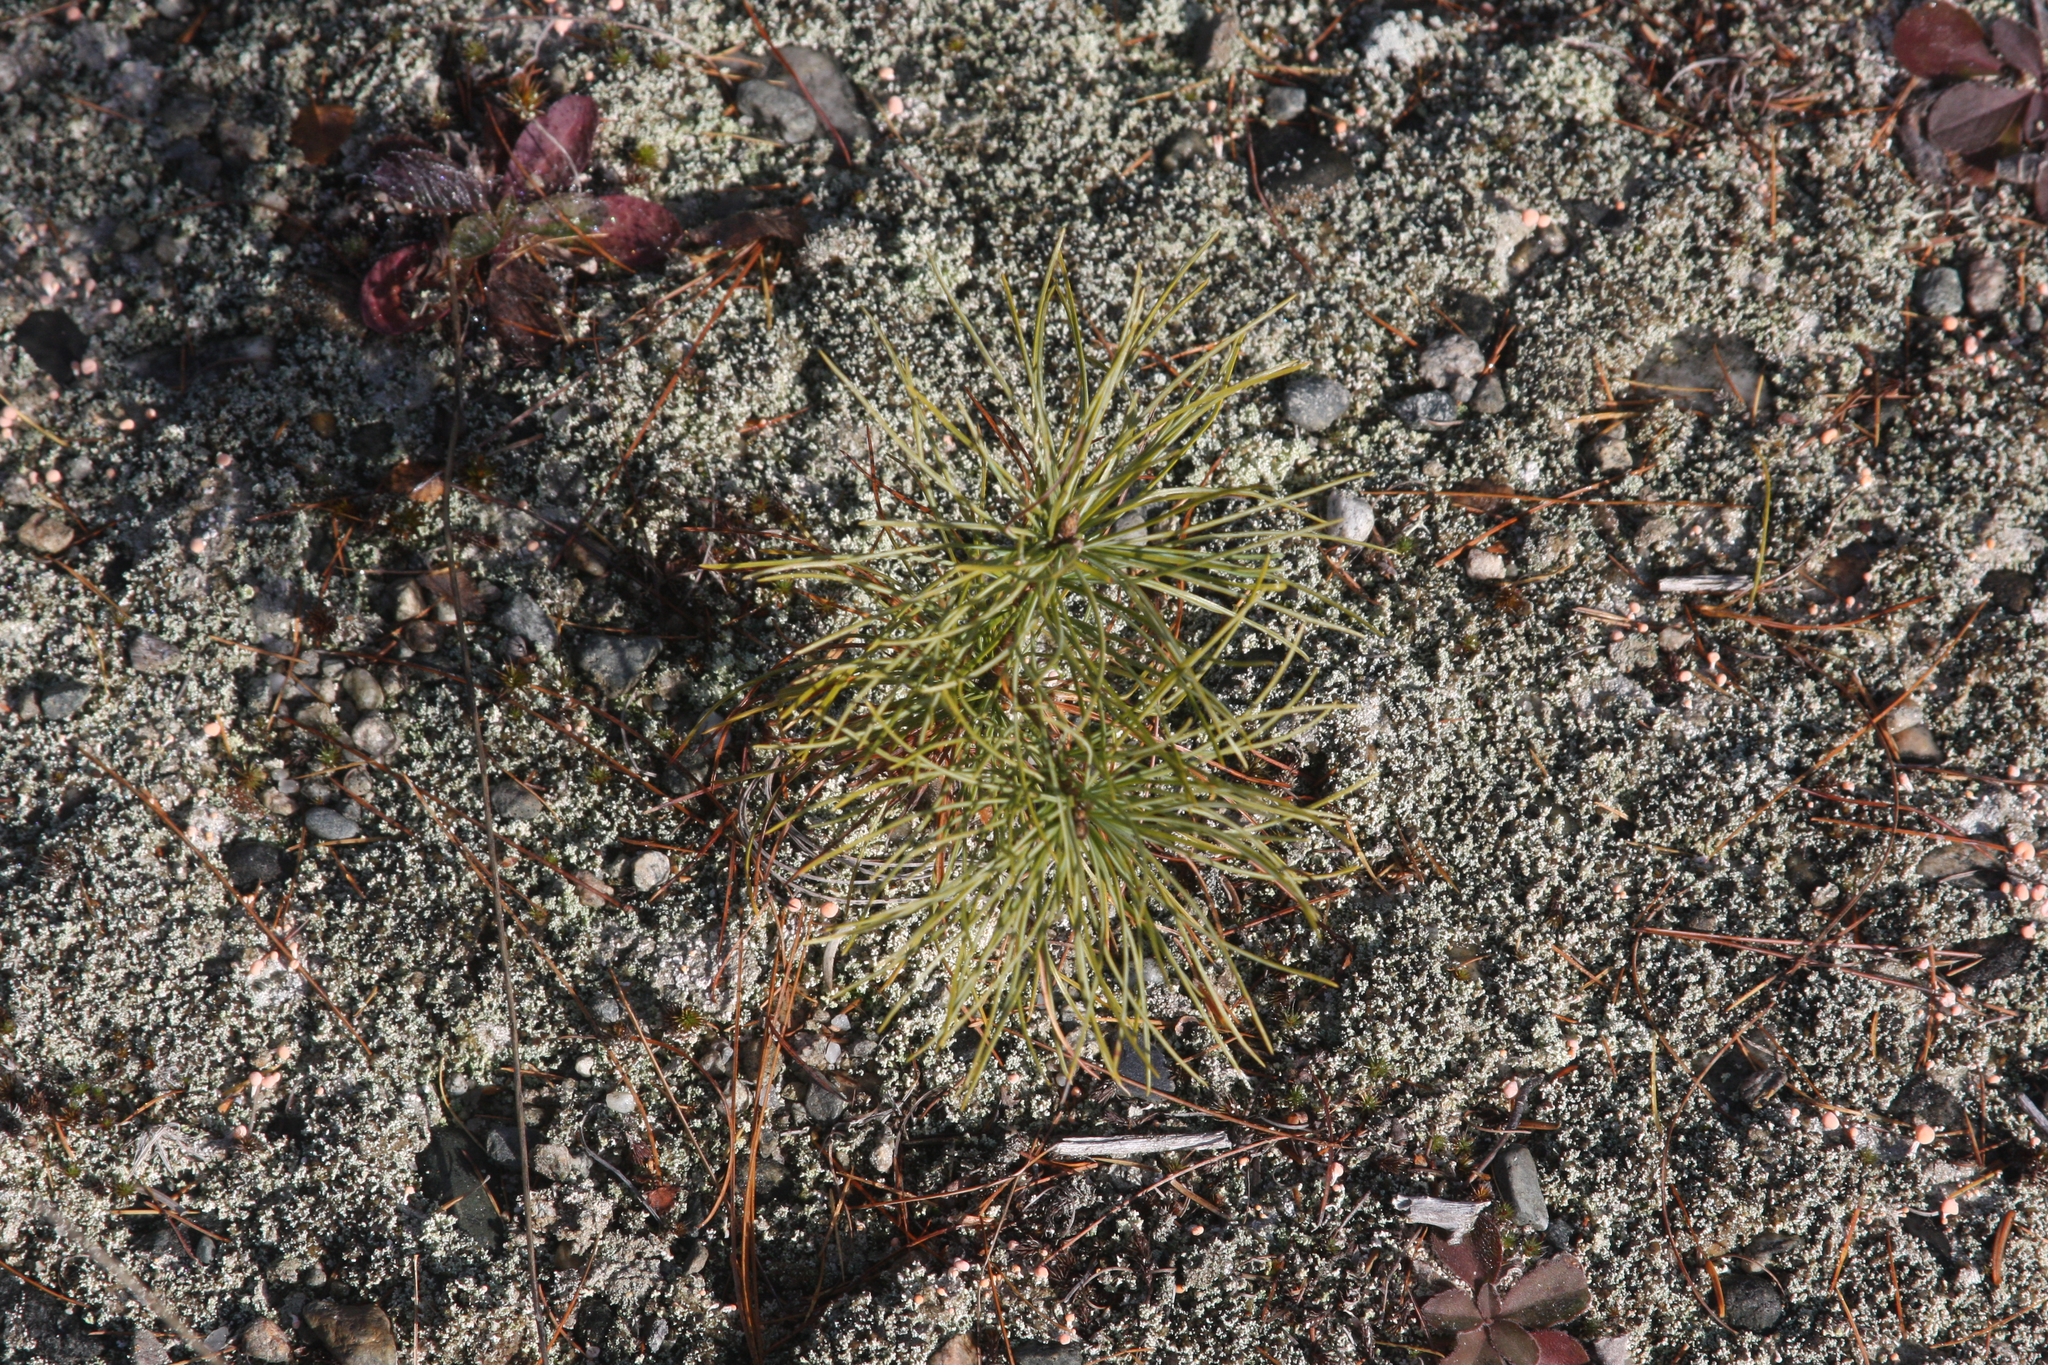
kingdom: Plantae
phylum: Tracheophyta
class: Pinopsida
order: Pinales
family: Pinaceae
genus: Pinus
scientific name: Pinus strobus
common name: Weymouth pine
